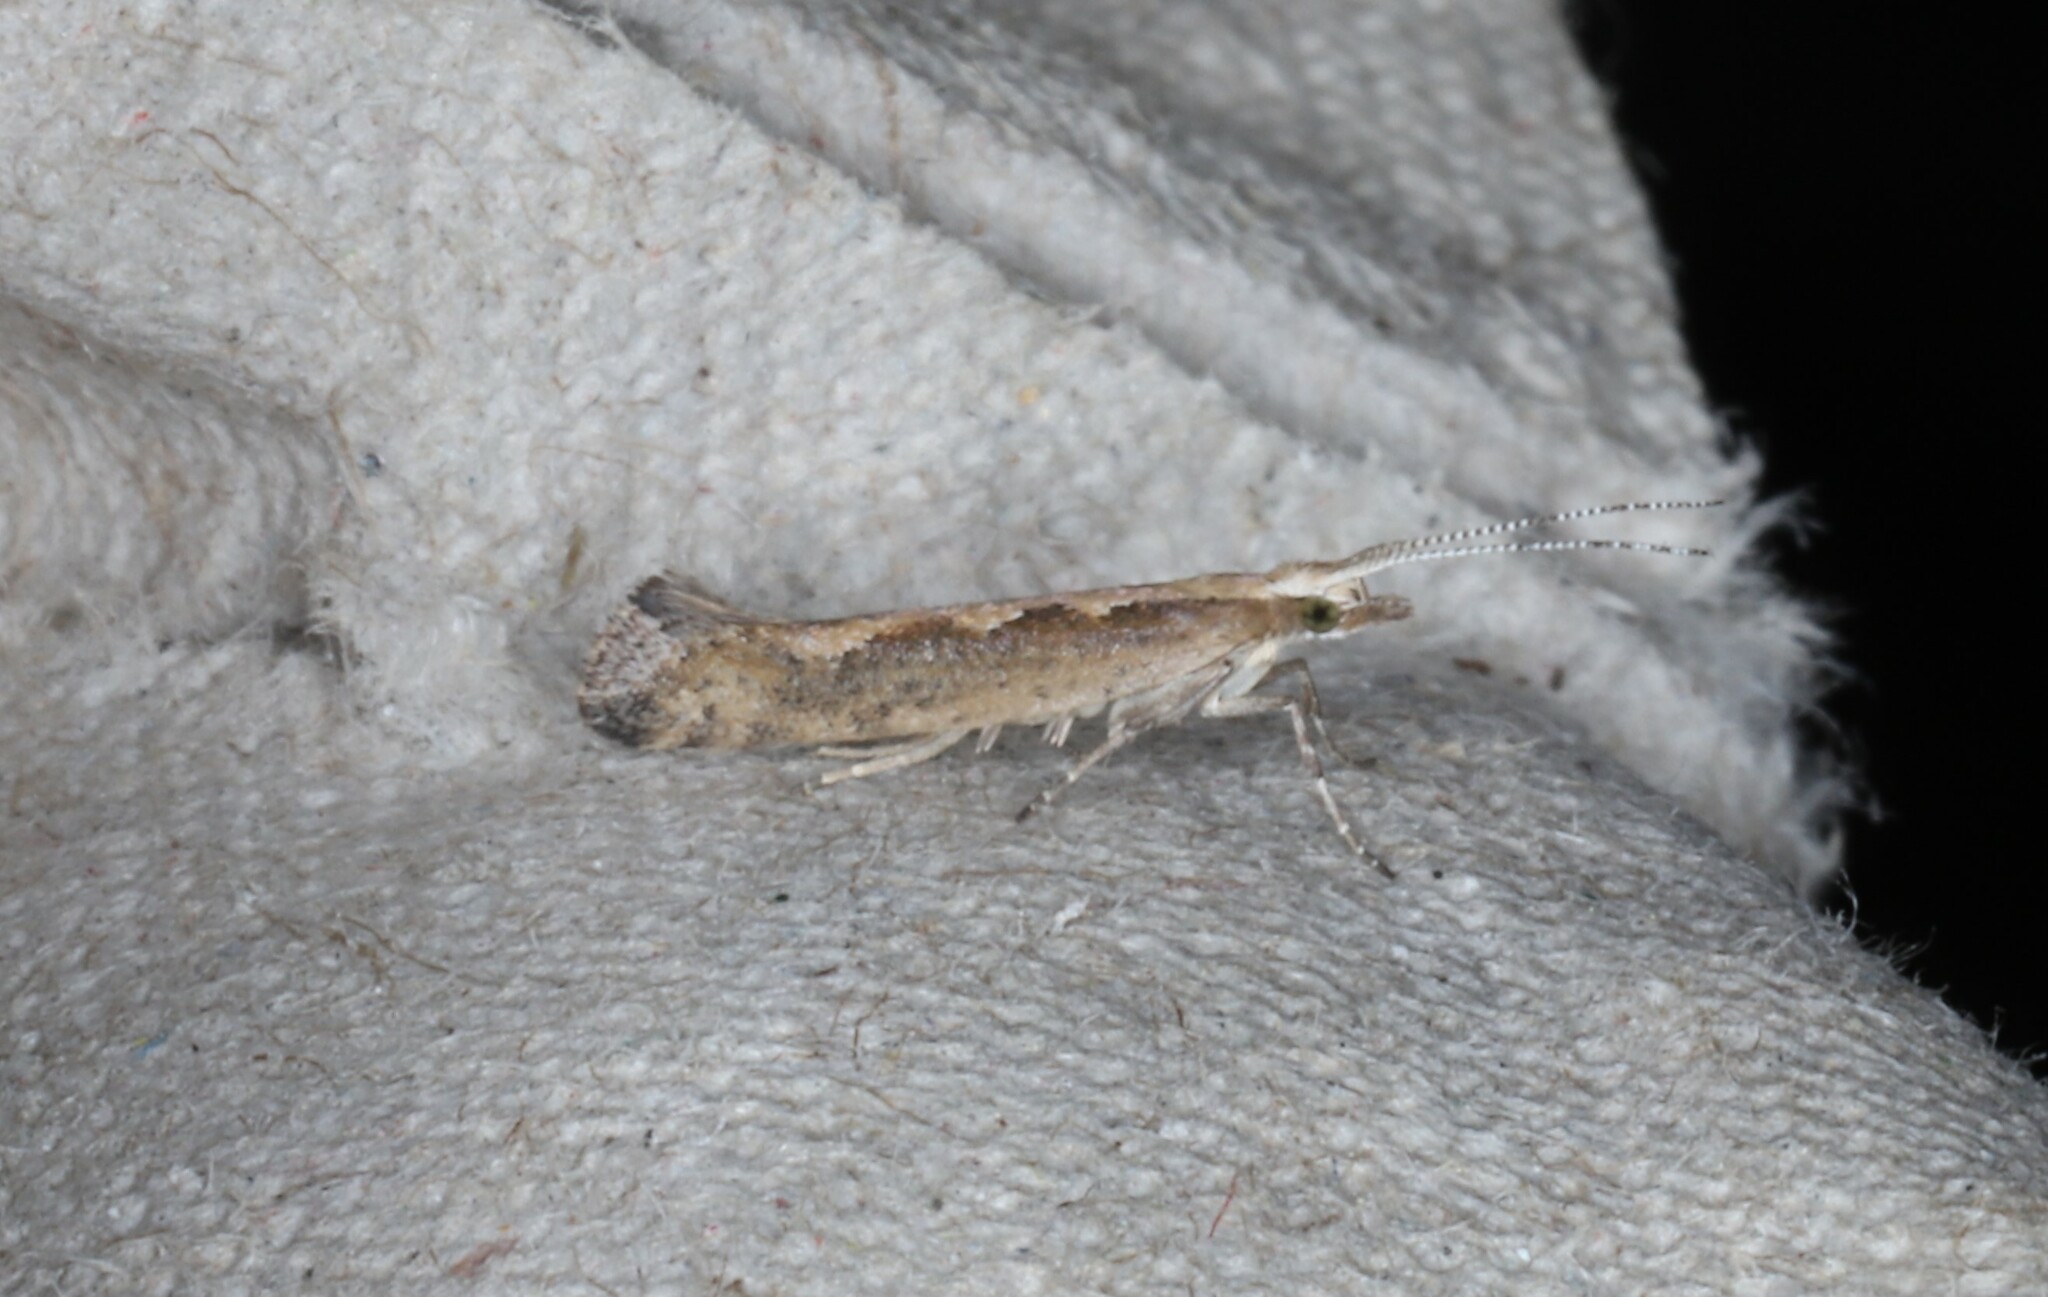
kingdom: Animalia
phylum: Arthropoda
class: Insecta
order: Lepidoptera
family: Plutellidae
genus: Plutella
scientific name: Plutella xylostella
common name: Diamond-back moth
